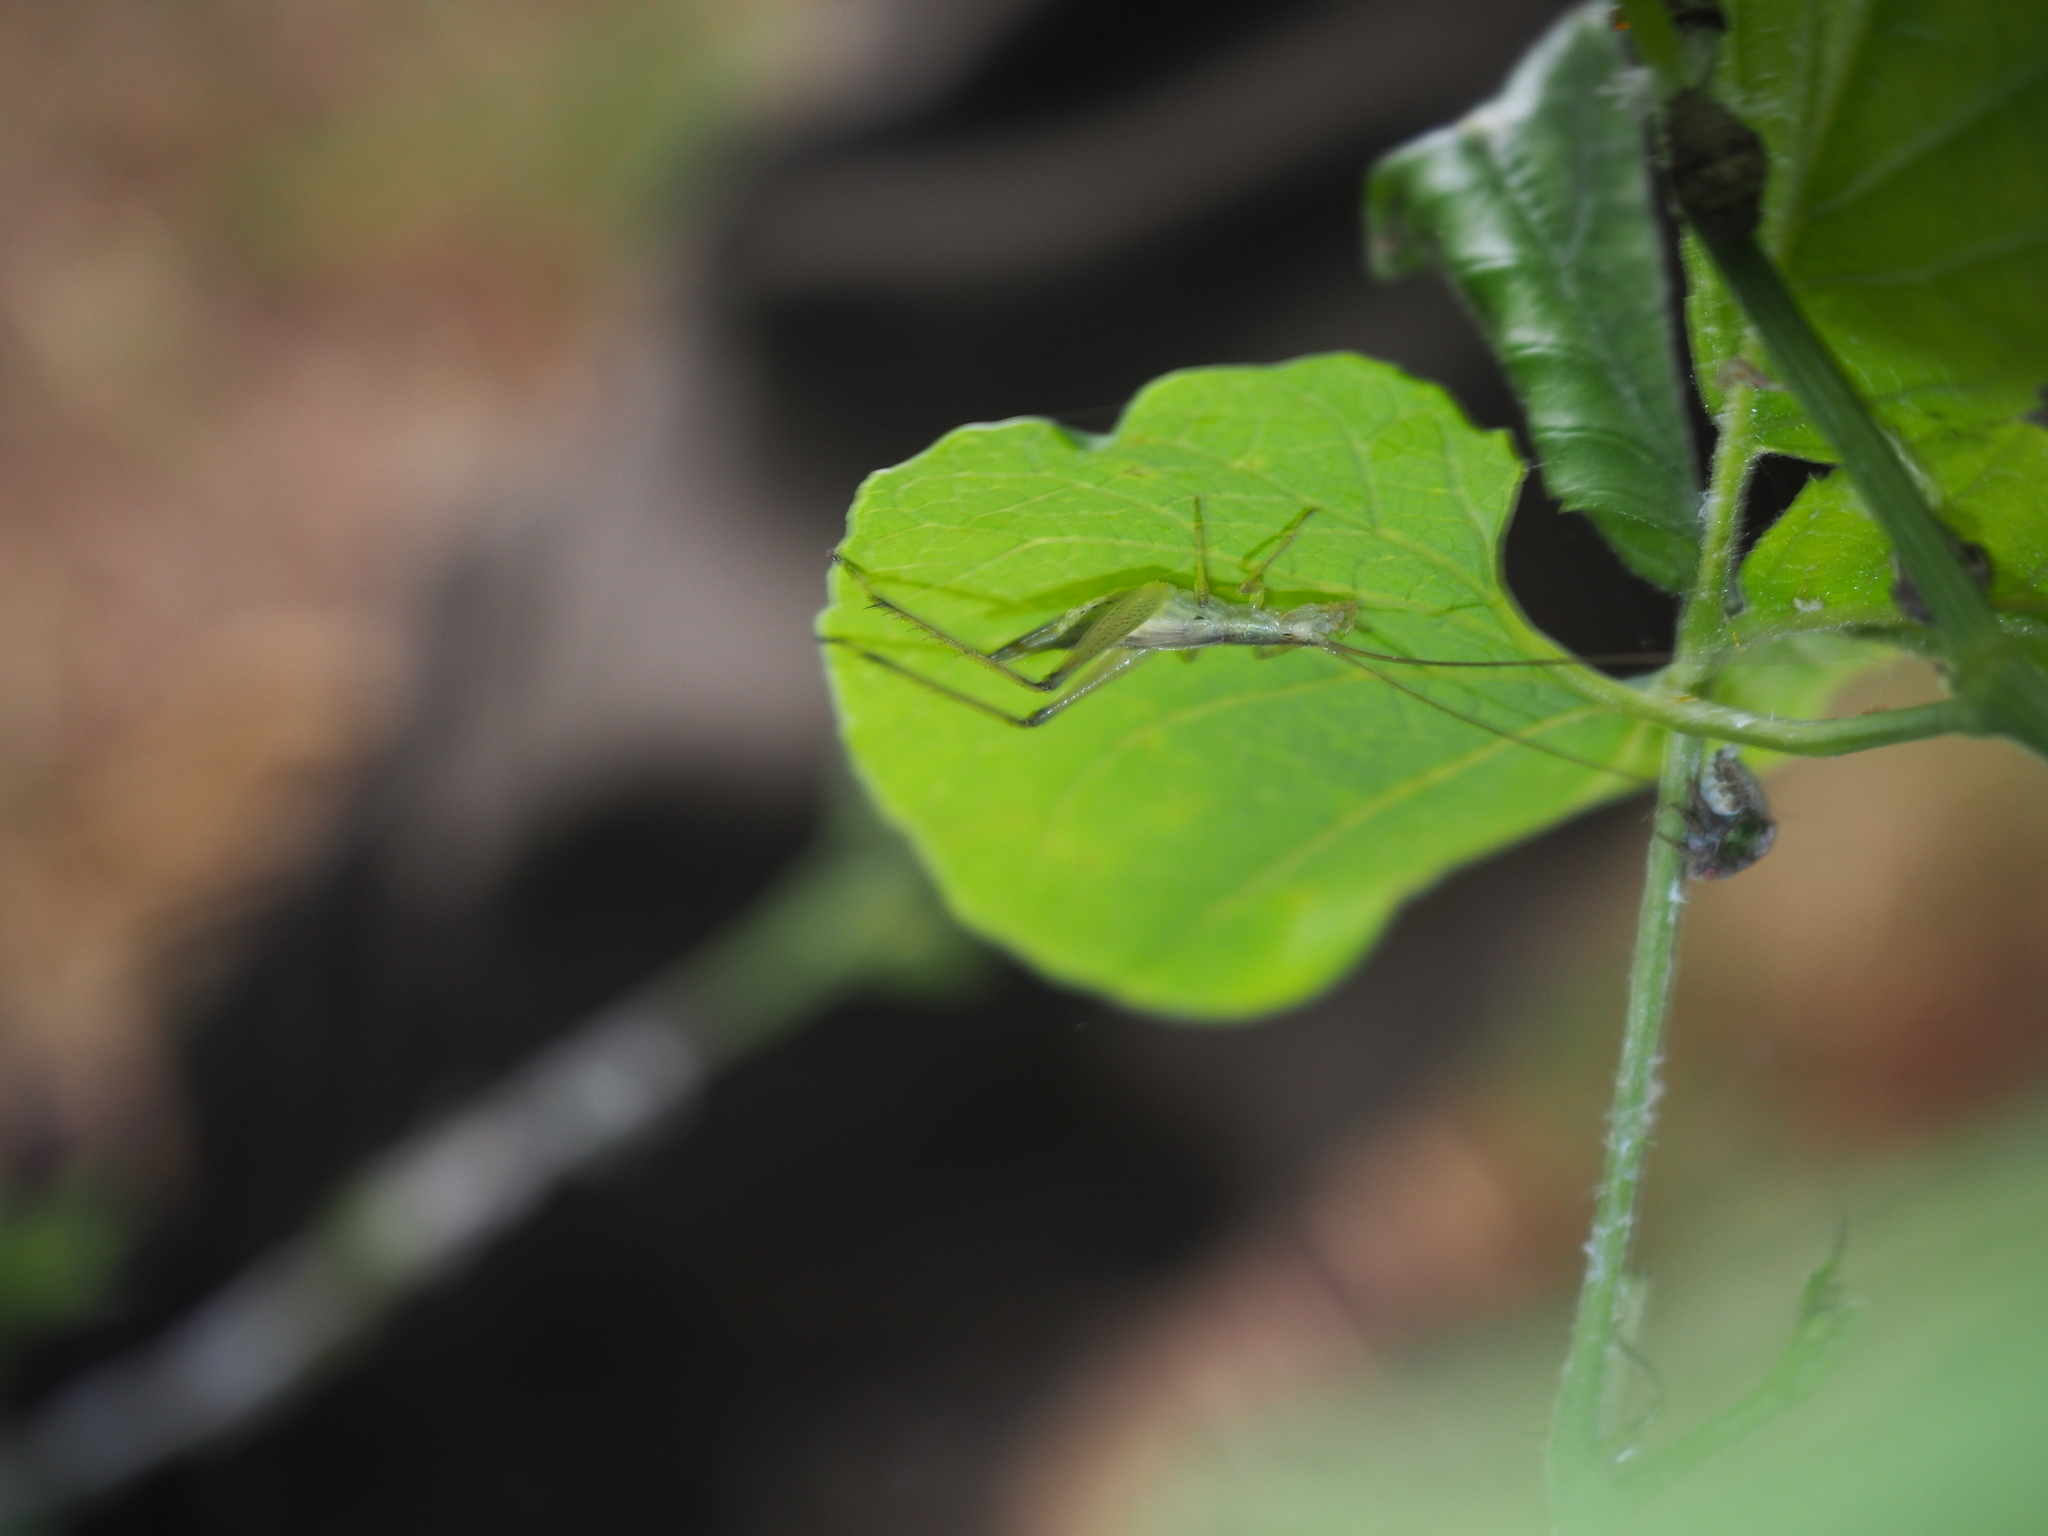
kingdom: Animalia
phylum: Arthropoda
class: Insecta
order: Orthoptera
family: Gryllidae
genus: Oecanthus
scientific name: Oecanthus pellucens
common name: Tree-cricket
